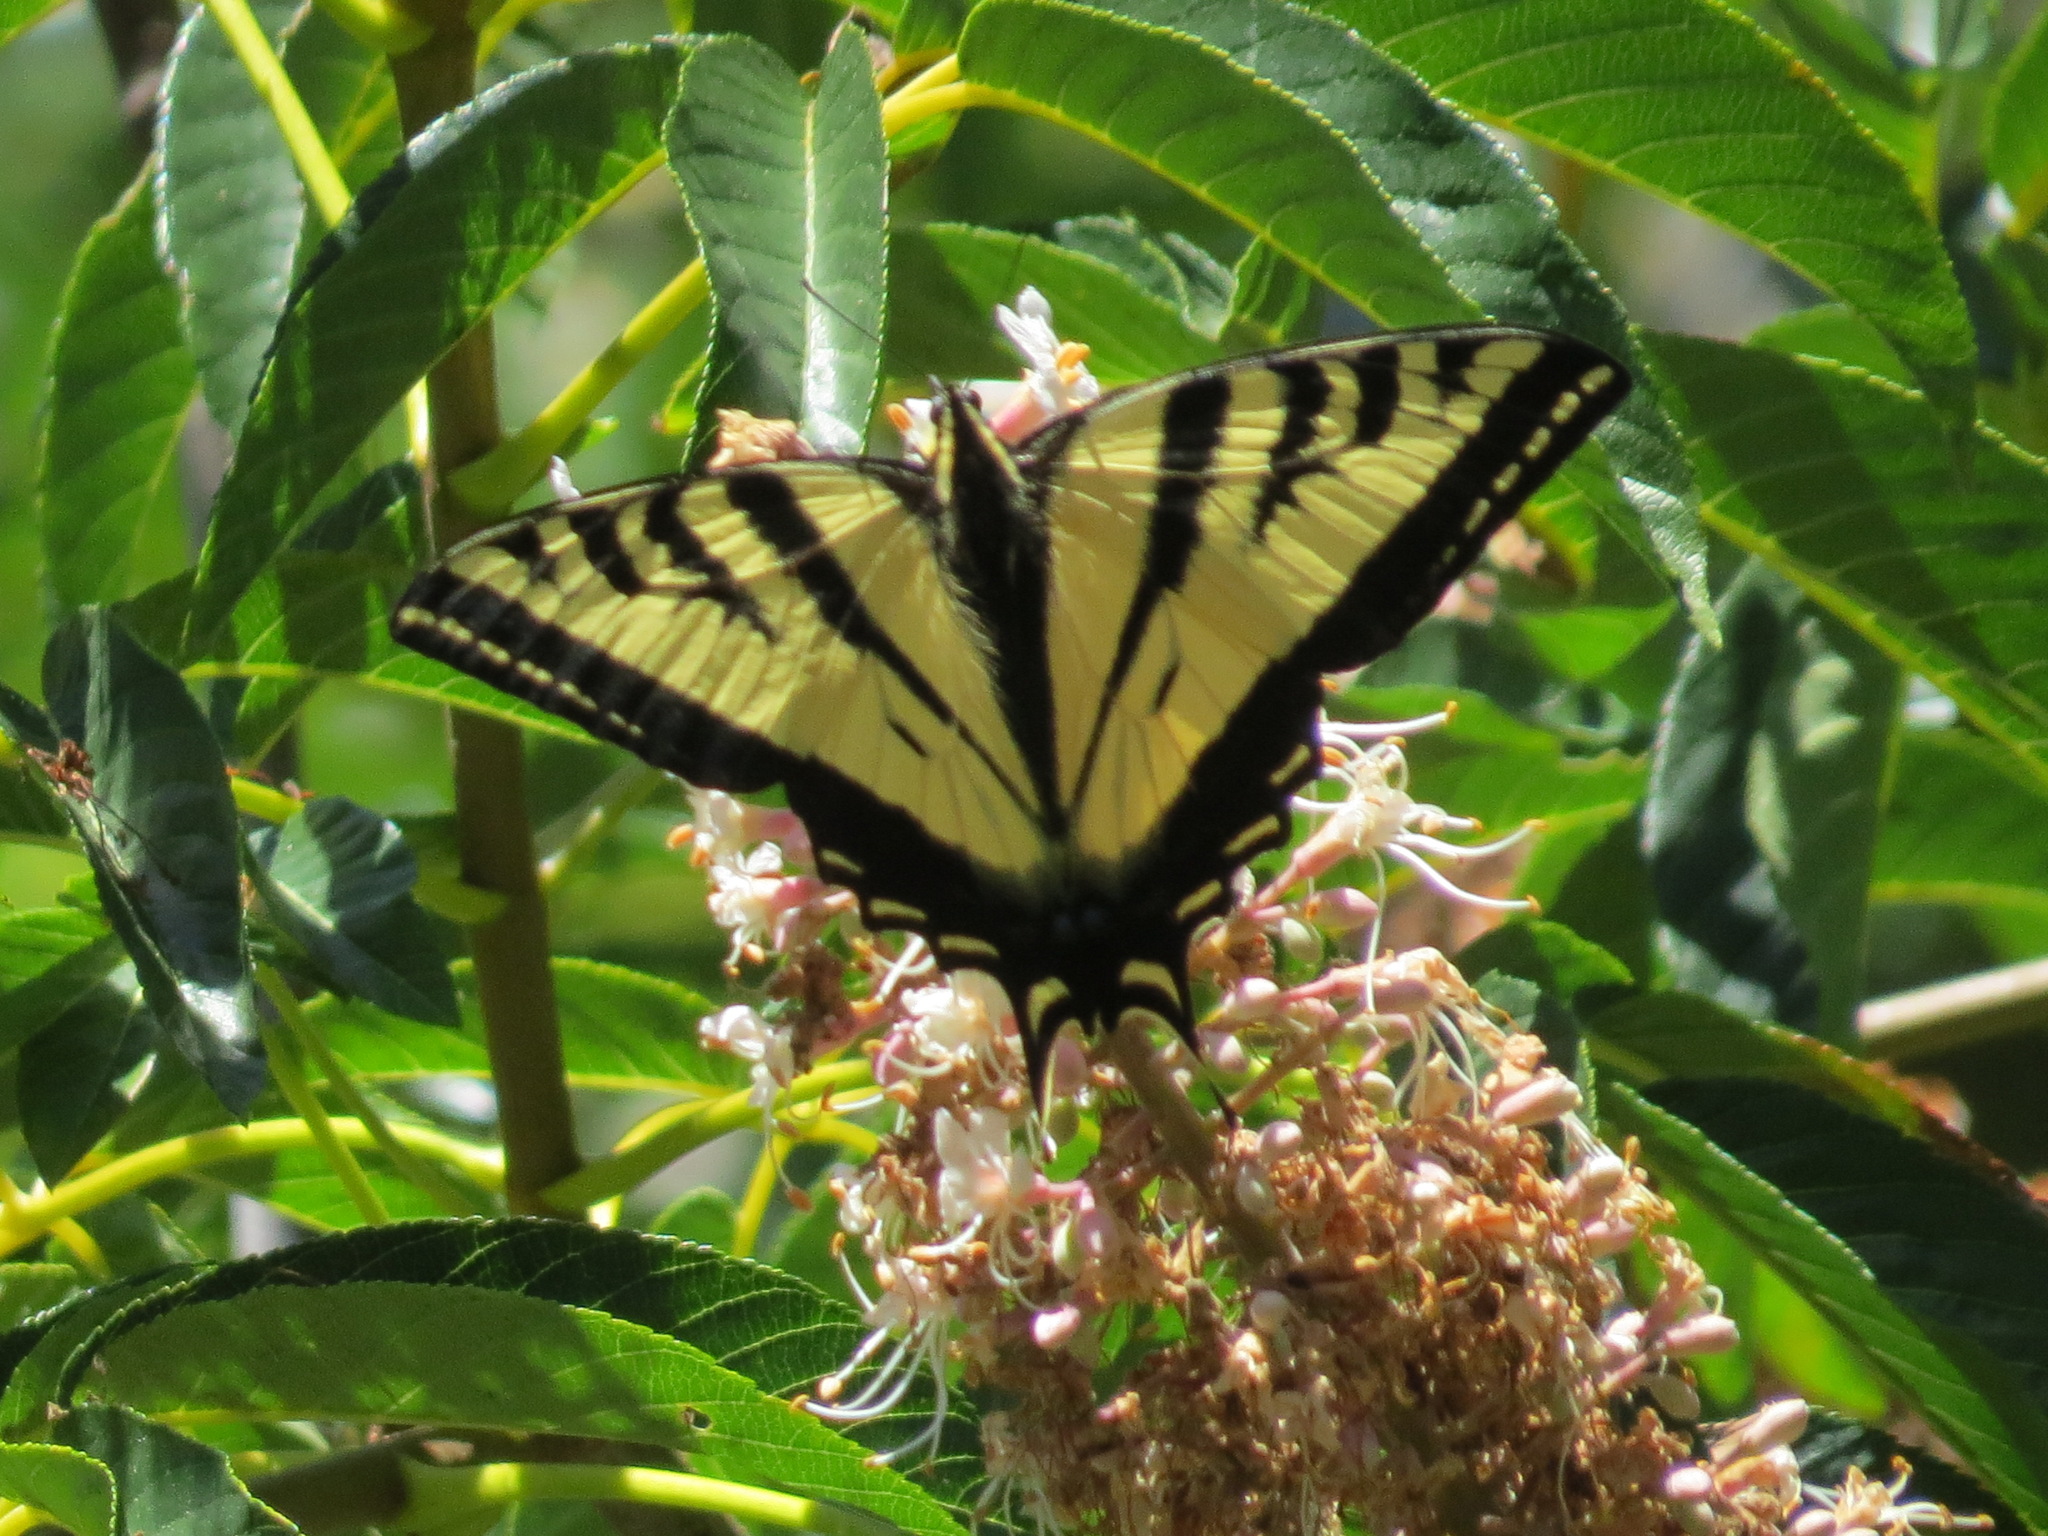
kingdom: Animalia
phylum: Arthropoda
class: Insecta
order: Lepidoptera
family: Papilionidae
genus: Papilio
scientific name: Papilio rutulus
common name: Western tiger swallowtail
